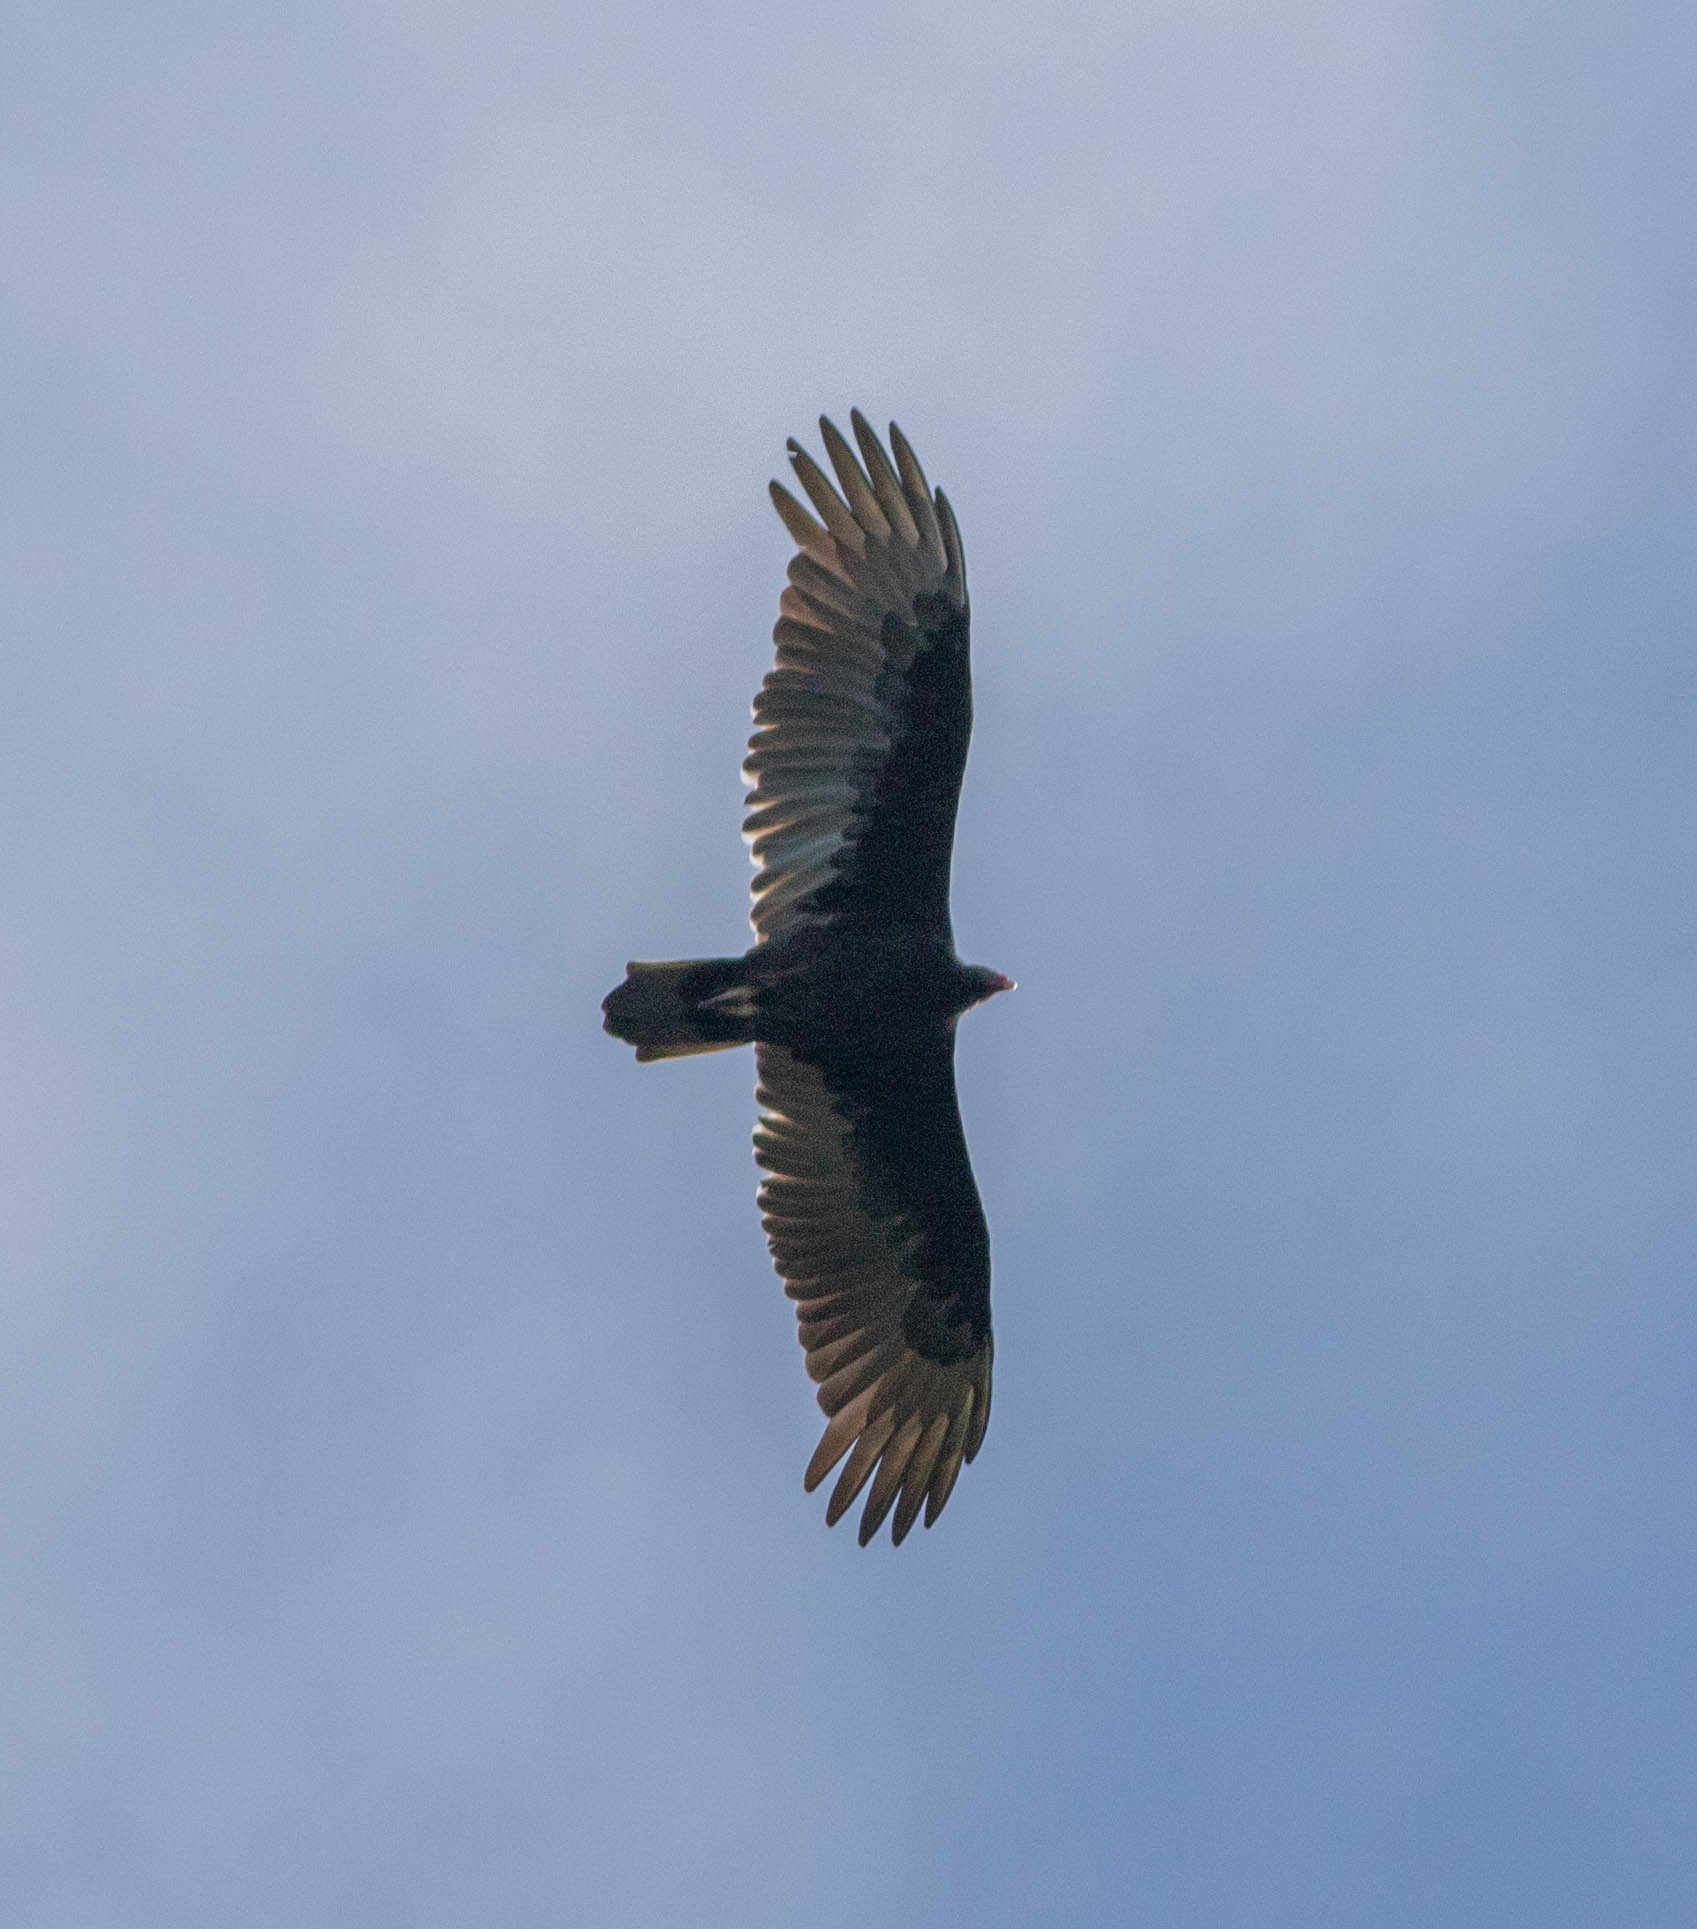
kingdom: Animalia
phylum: Chordata
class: Aves
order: Accipitriformes
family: Cathartidae
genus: Cathartes
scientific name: Cathartes aura
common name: Turkey vulture
